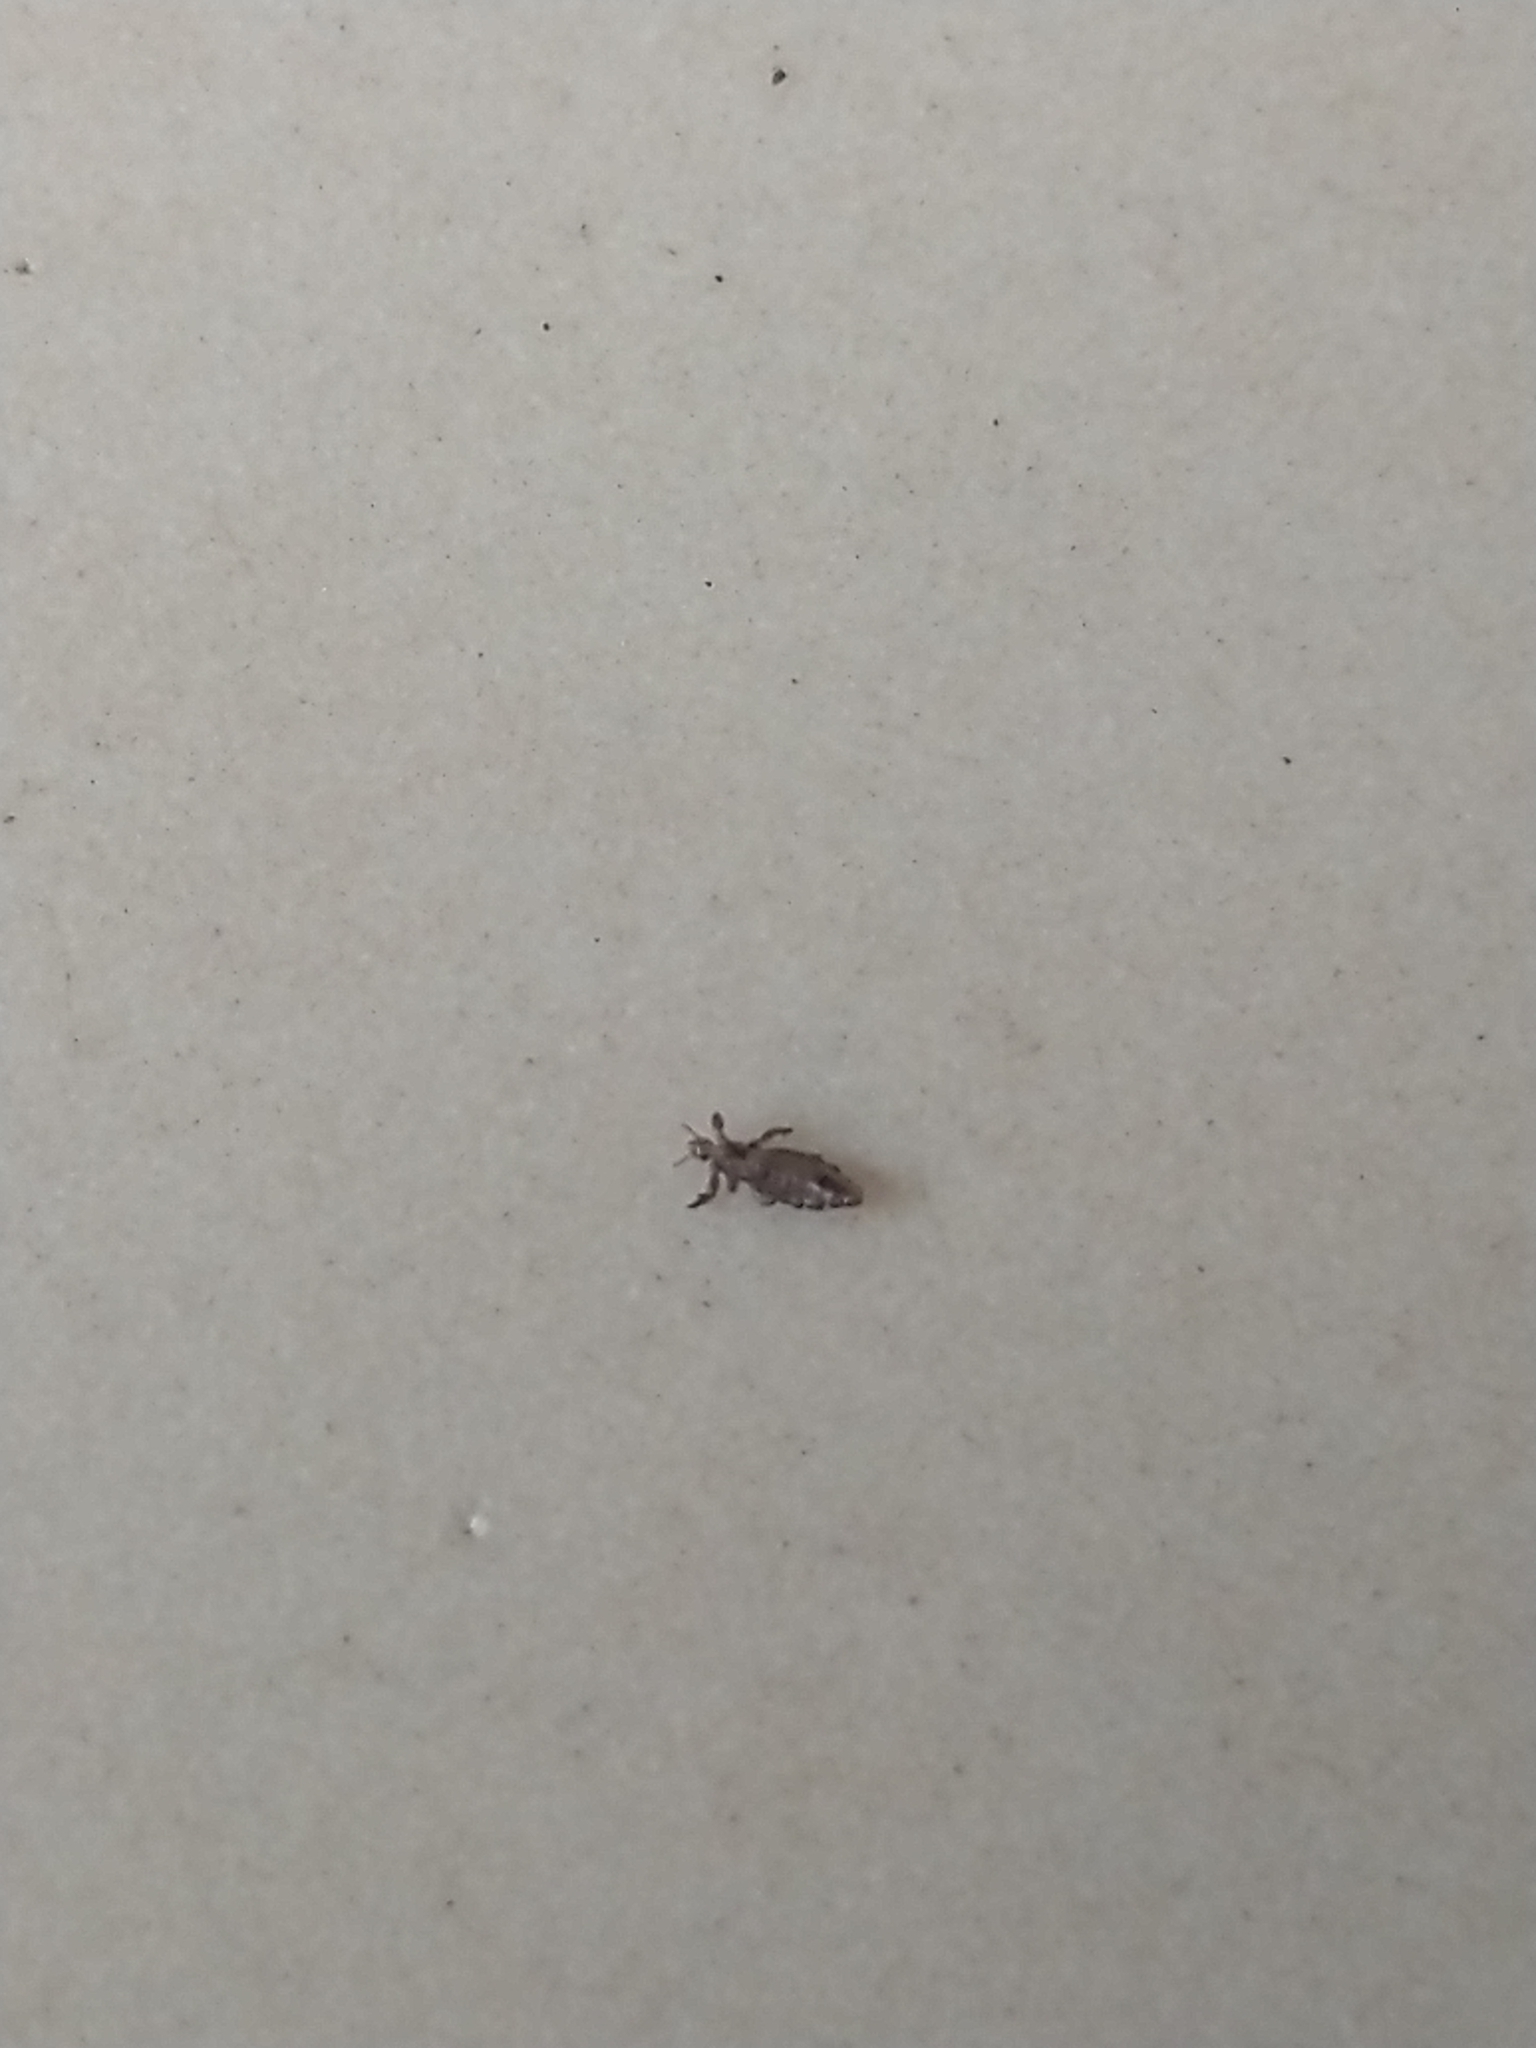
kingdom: Animalia
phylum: Arthropoda
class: Insecta
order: Psocodea
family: Pediculidae
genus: Pediculus
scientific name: Pediculus humanus
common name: Body louse
